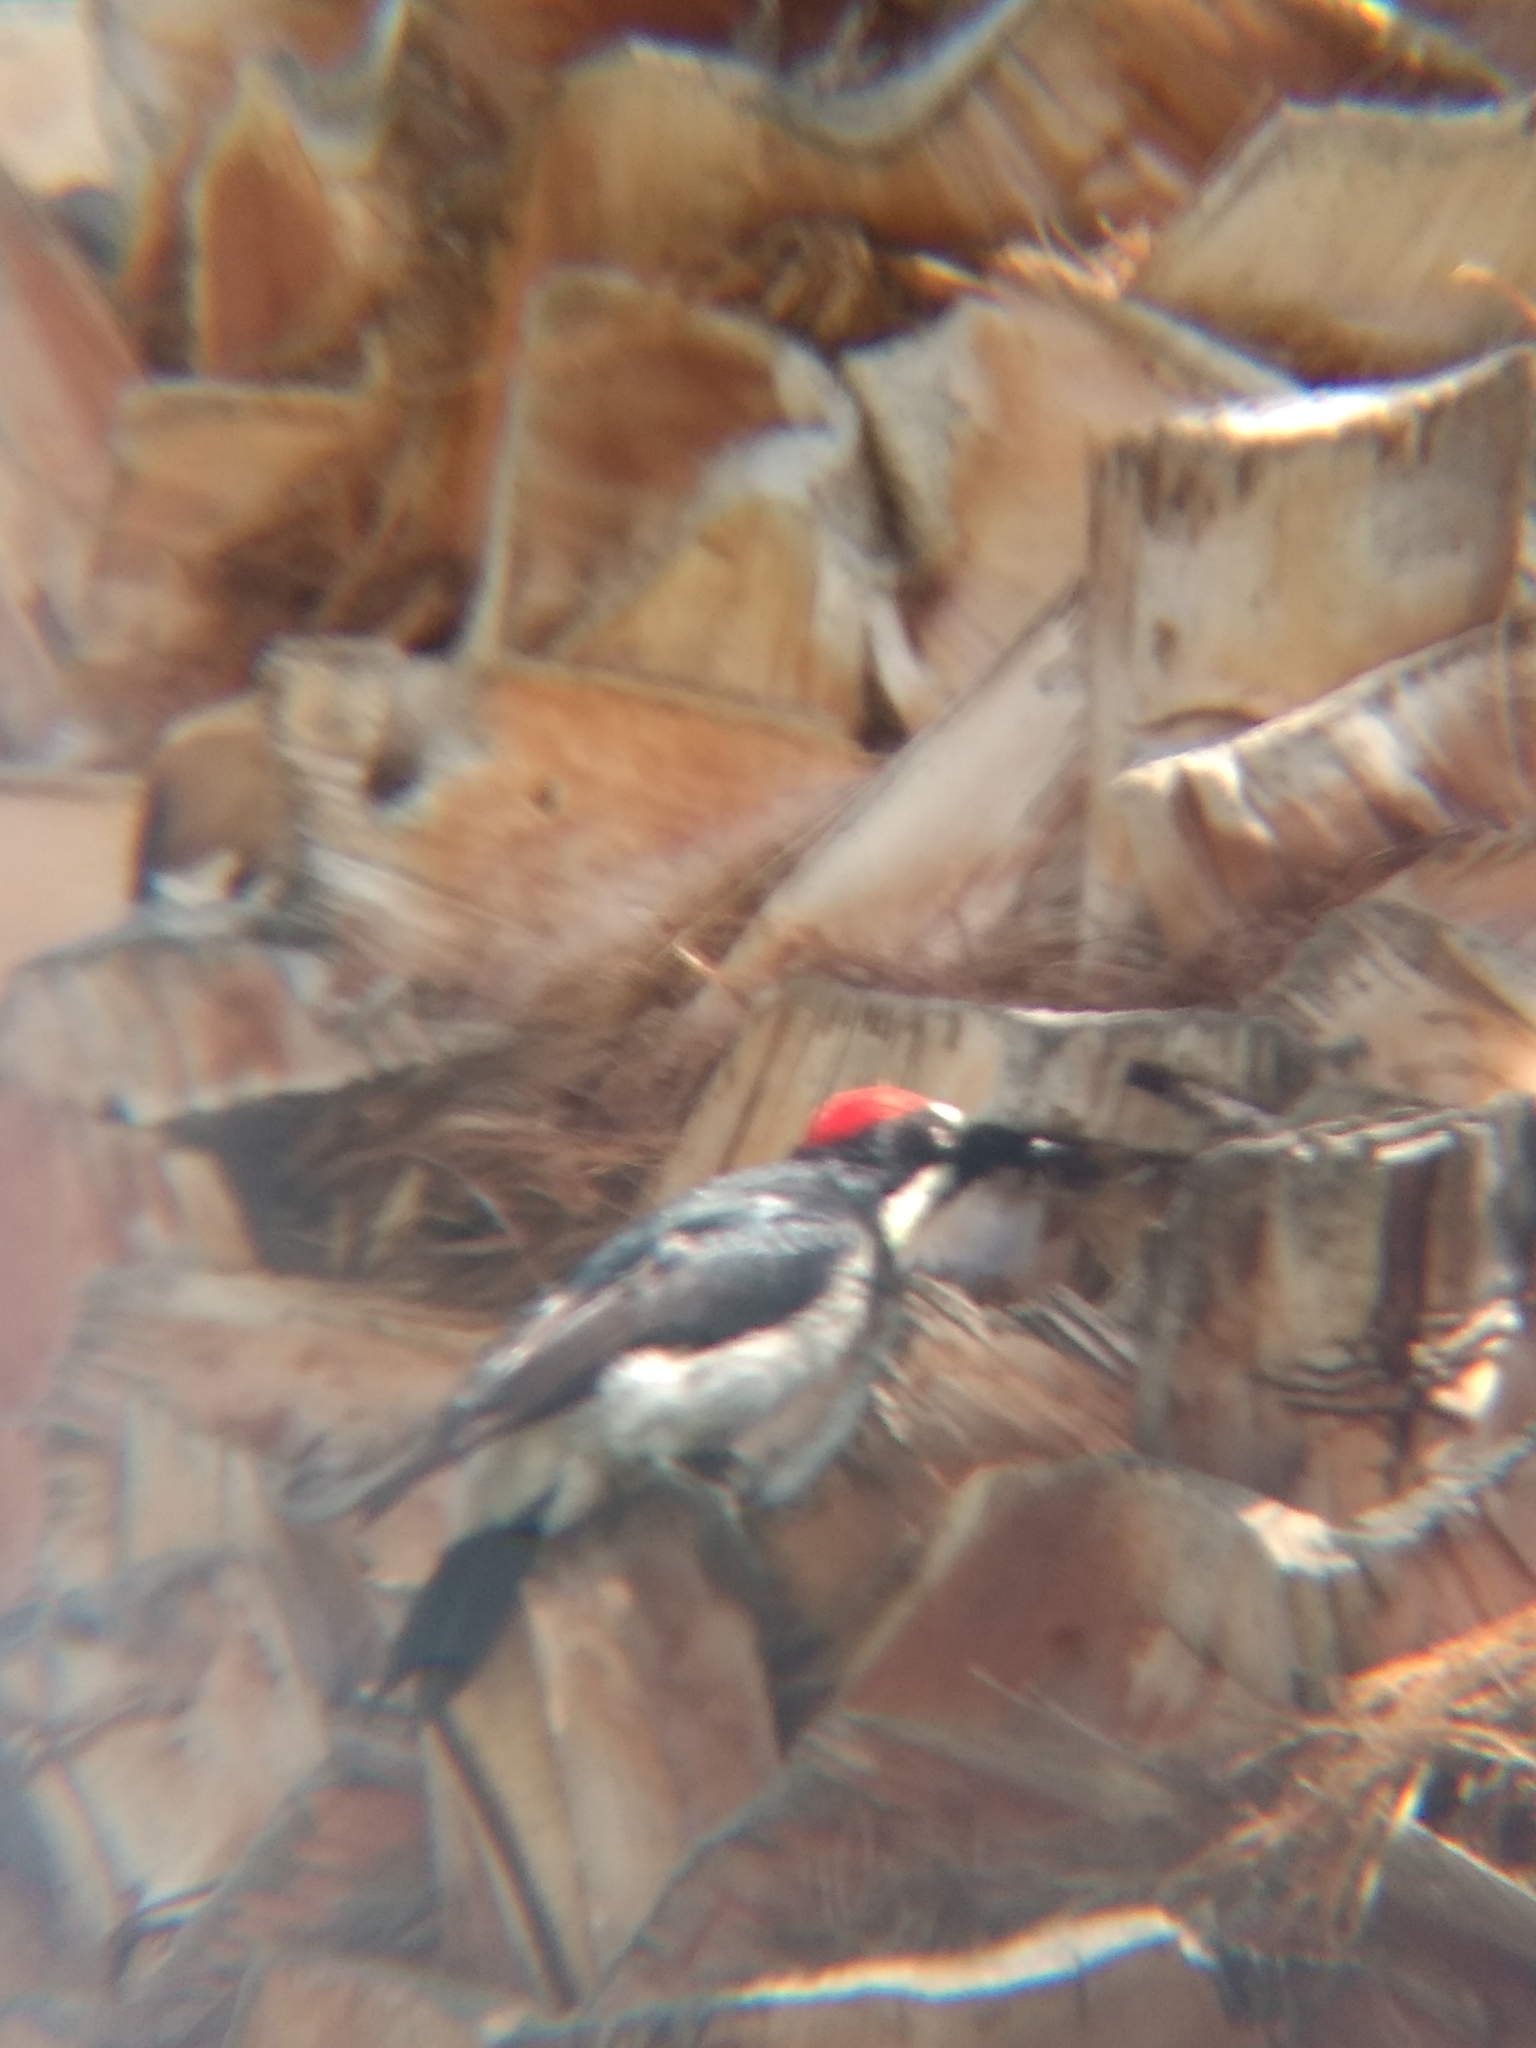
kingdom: Animalia
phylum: Chordata
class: Aves
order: Piciformes
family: Picidae
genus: Melanerpes
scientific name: Melanerpes formicivorus
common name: Acorn woodpecker
